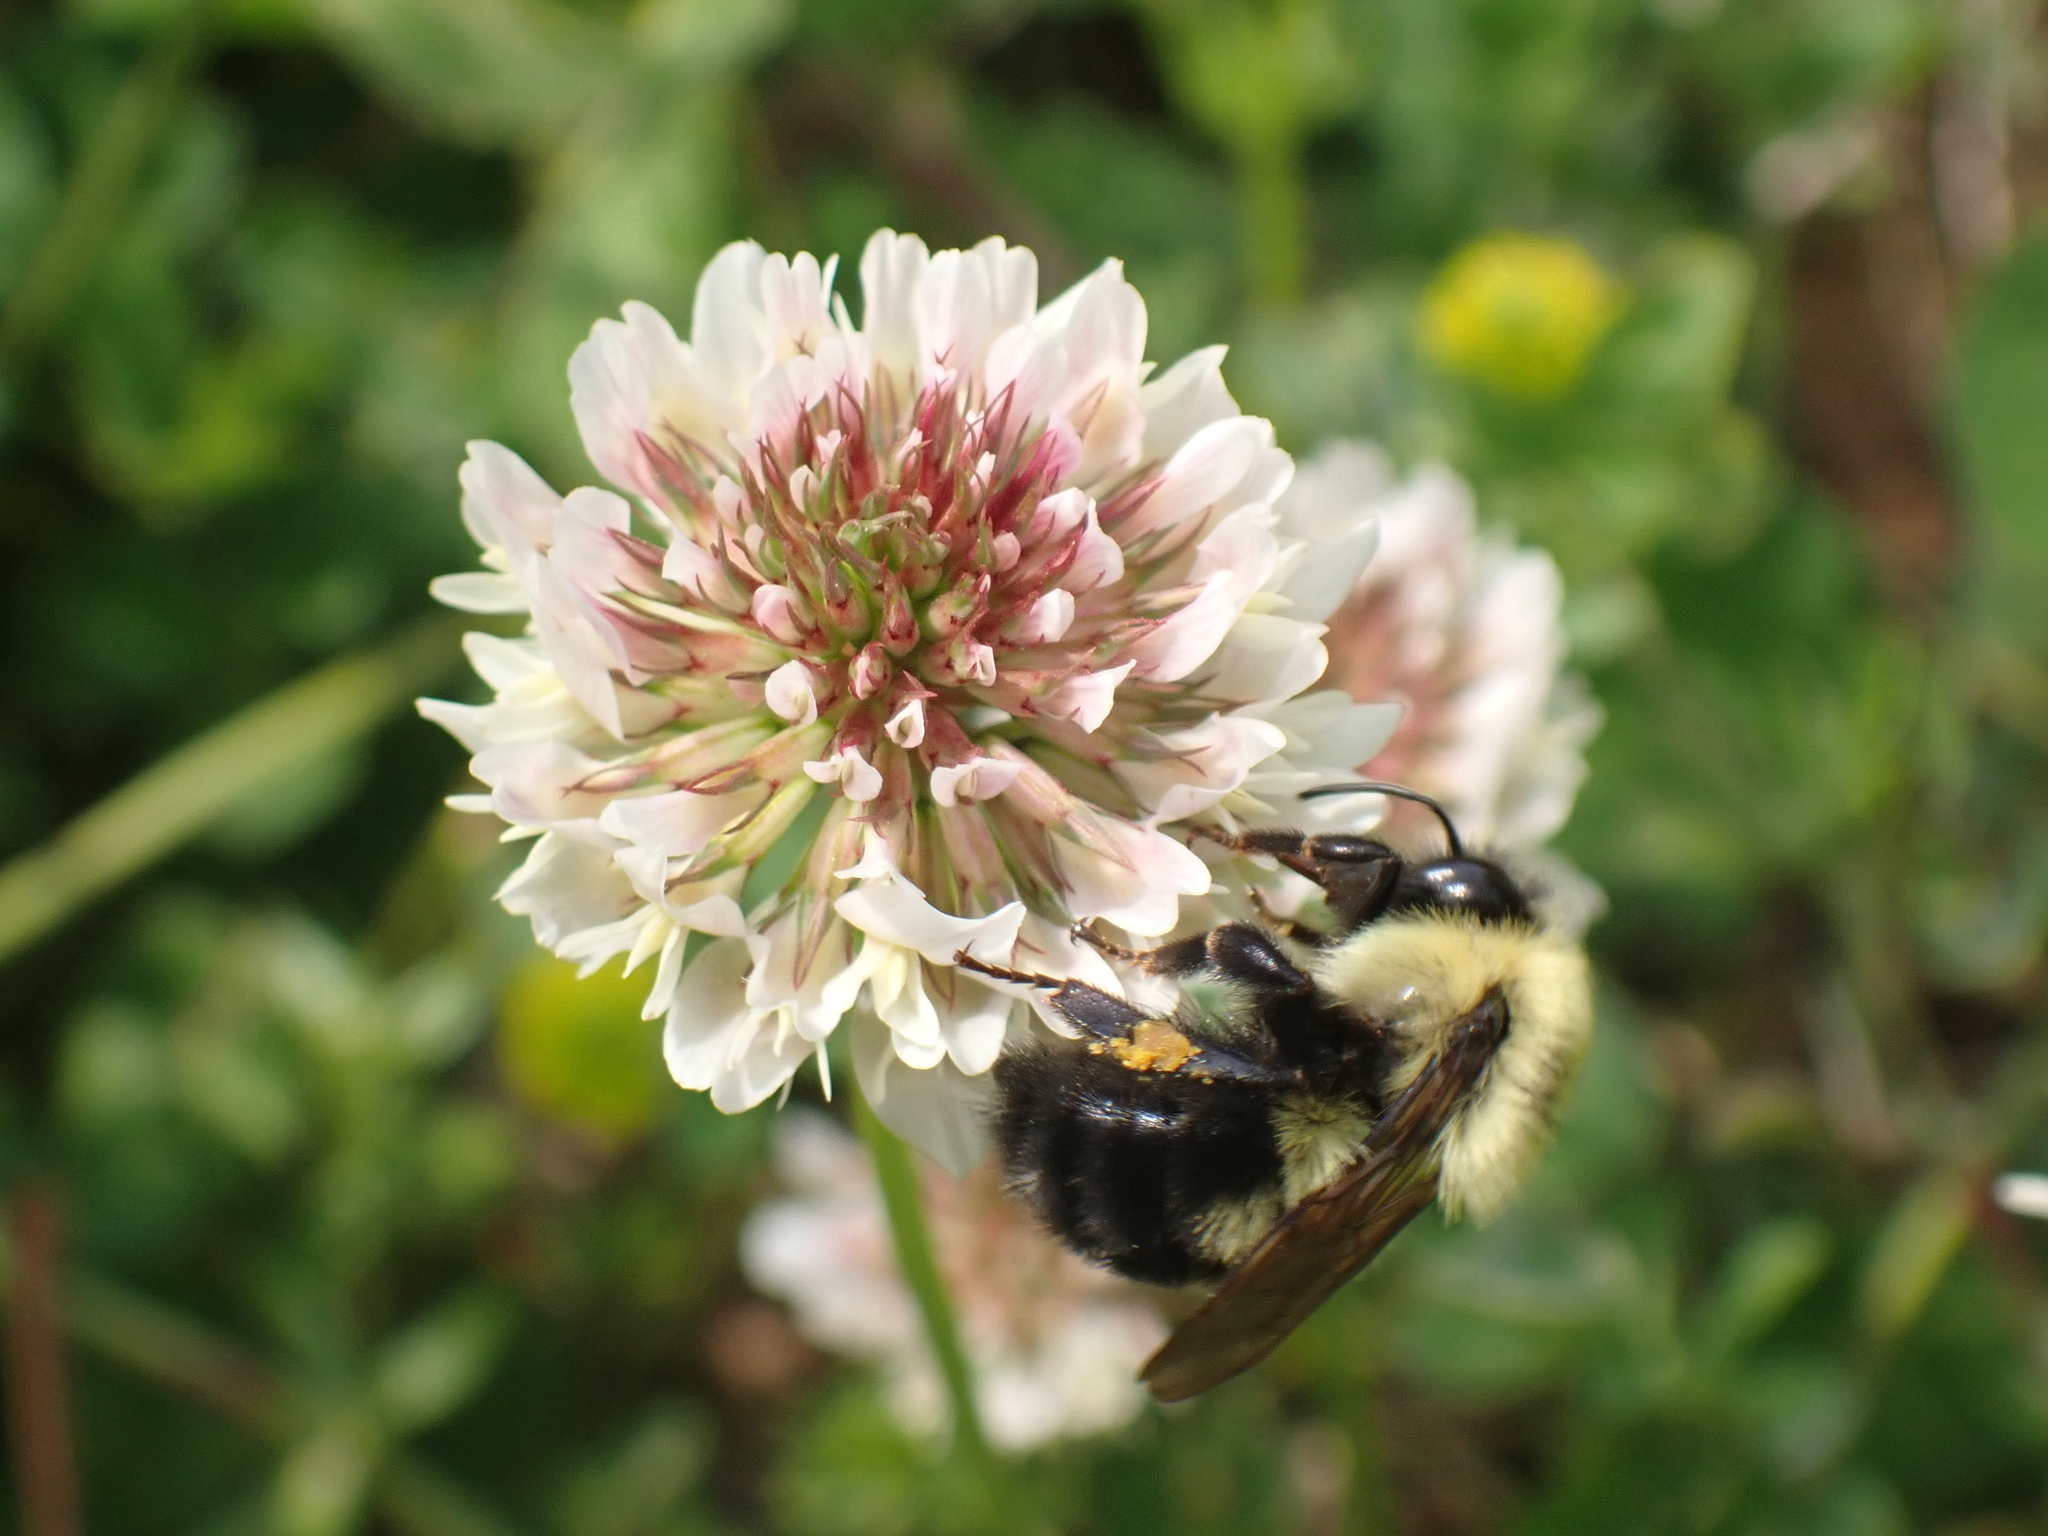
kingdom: Animalia
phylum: Arthropoda
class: Insecta
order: Hymenoptera
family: Apidae
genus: Bombus
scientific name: Bombus bimaculatus
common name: Two-spotted bumble bee
